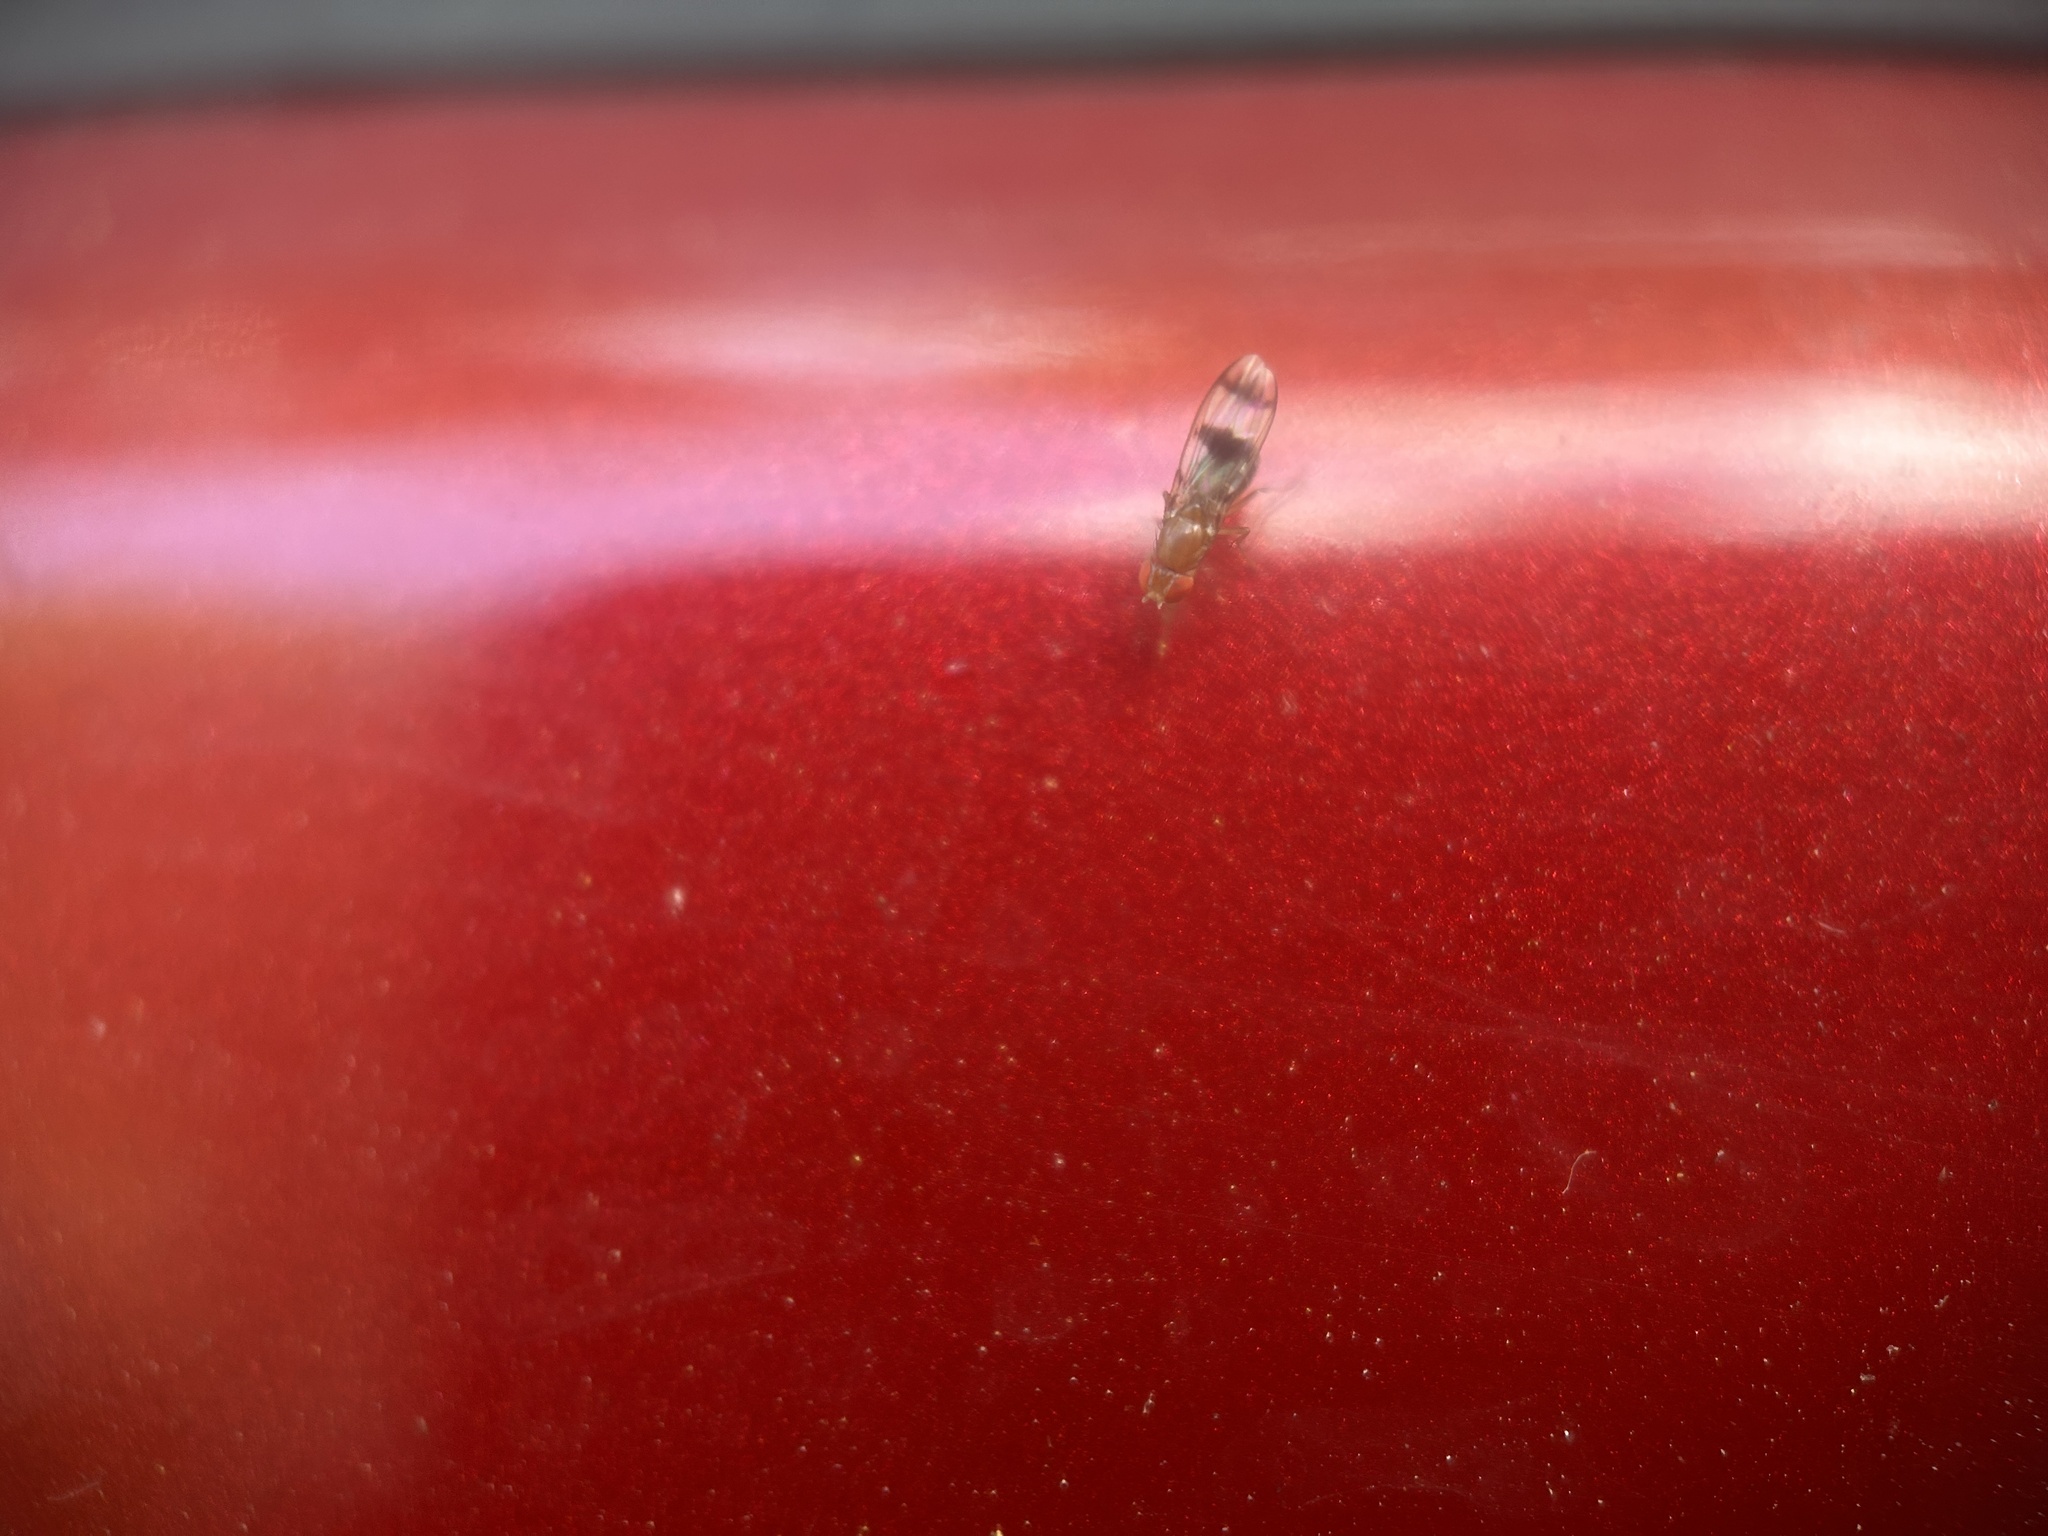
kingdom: Animalia
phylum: Arthropoda
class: Insecta
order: Diptera
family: Drosophilidae
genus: Chymomyza
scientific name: Chymomyza amoena
